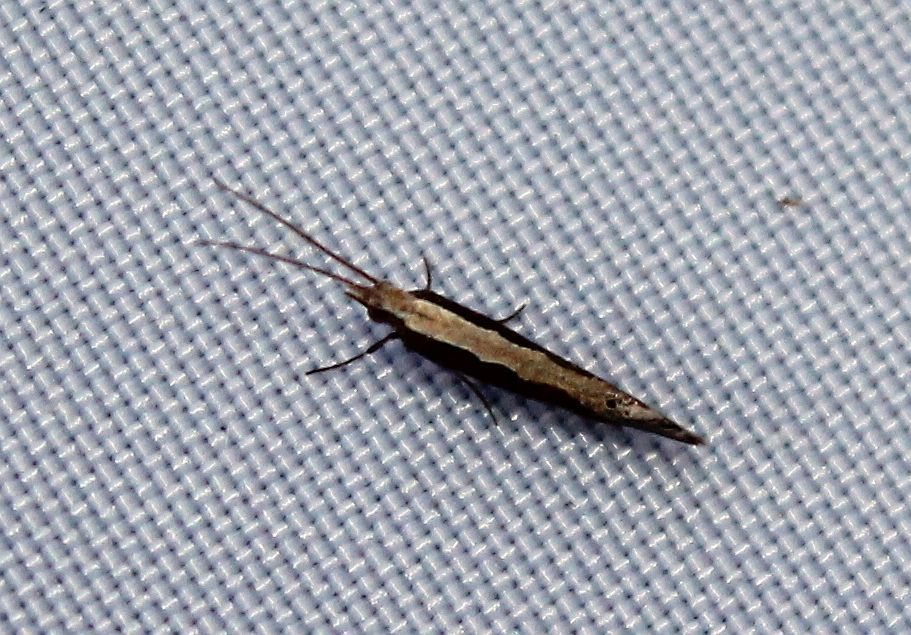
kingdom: Animalia
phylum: Arthropoda
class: Insecta
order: Lepidoptera
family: Plutellidae
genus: Plutella
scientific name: Plutella xylostella
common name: Diamond-back moth
